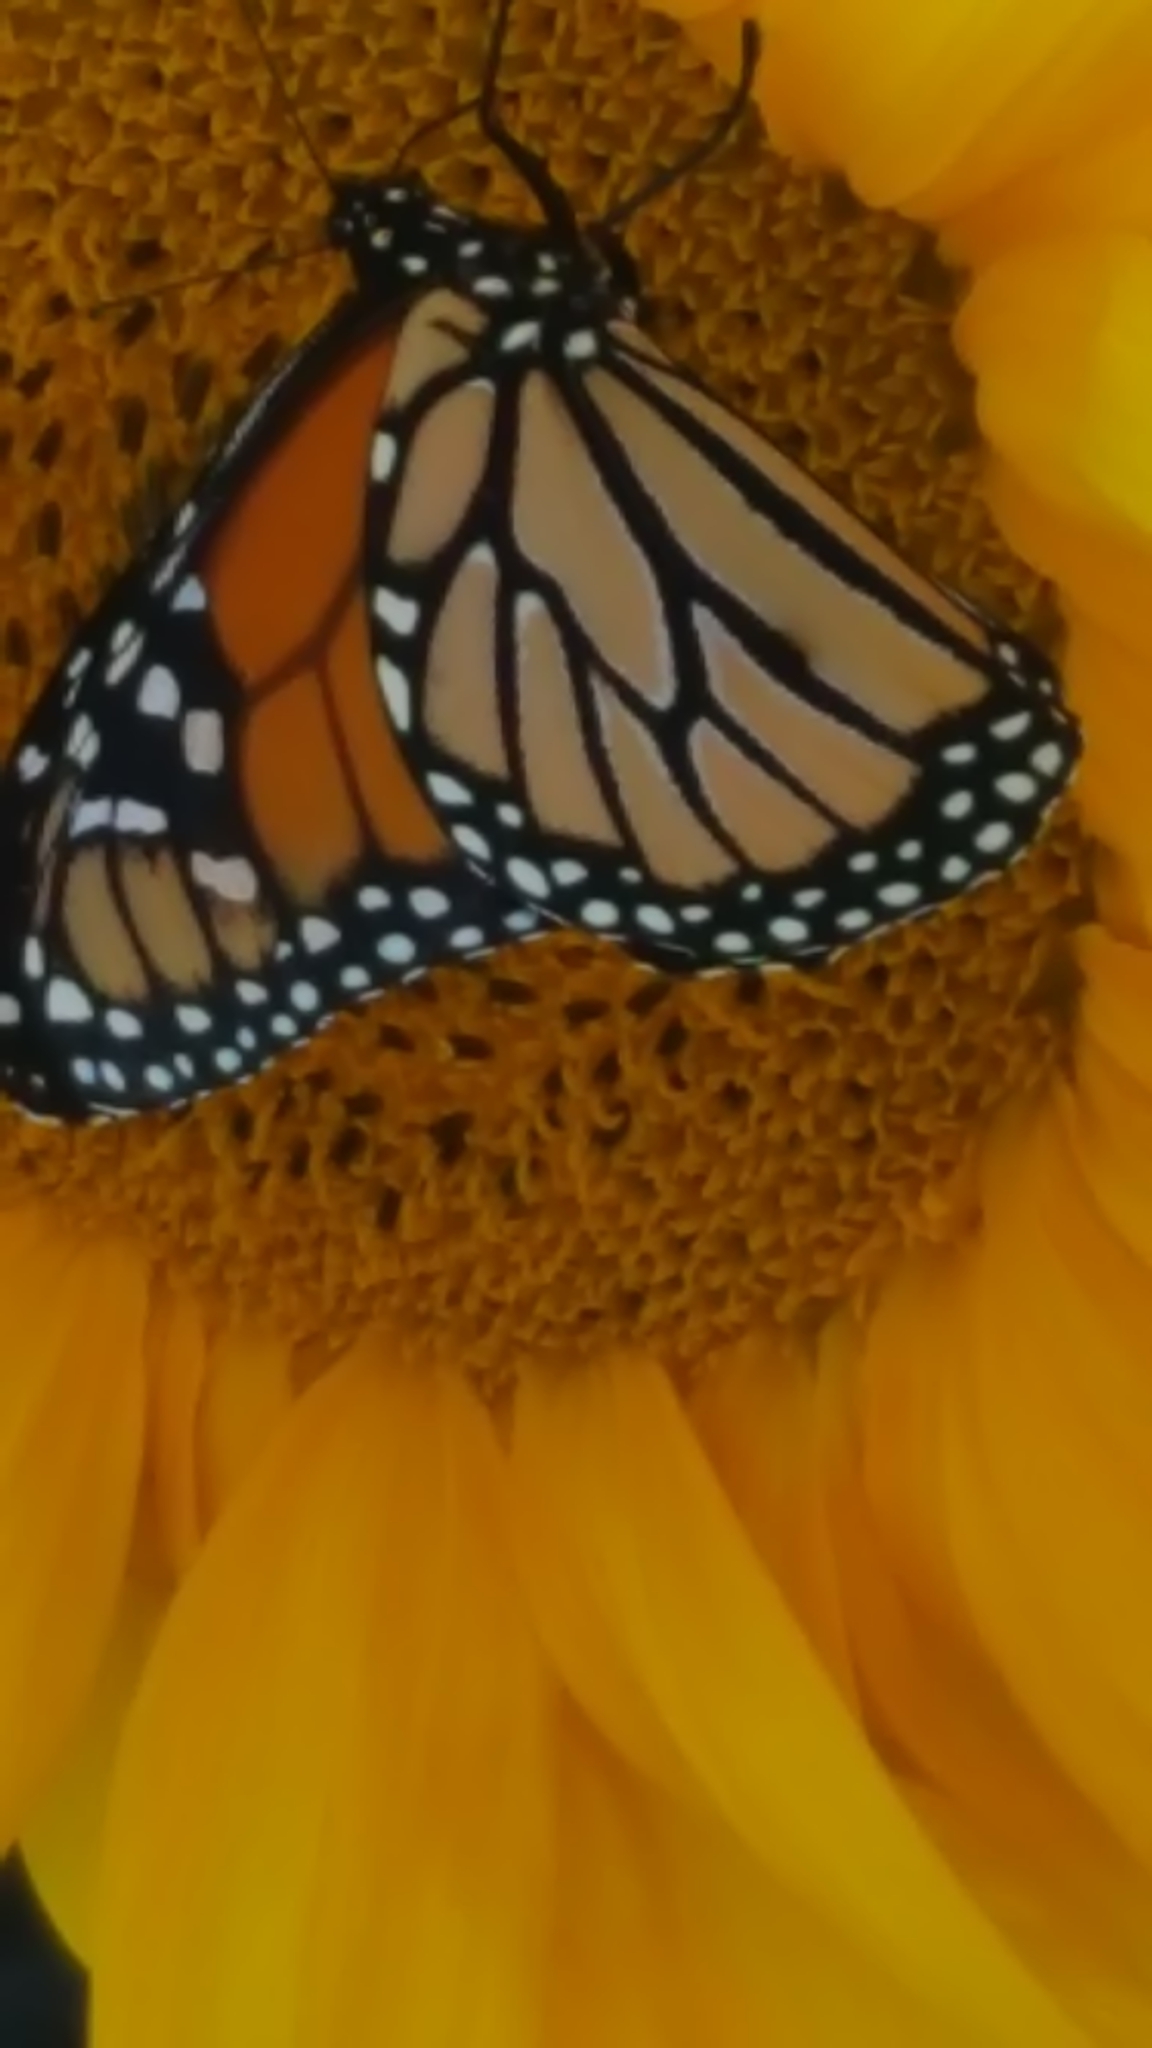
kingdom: Animalia
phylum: Arthropoda
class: Insecta
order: Lepidoptera
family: Nymphalidae
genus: Danaus
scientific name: Danaus plexippus
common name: Monarch
